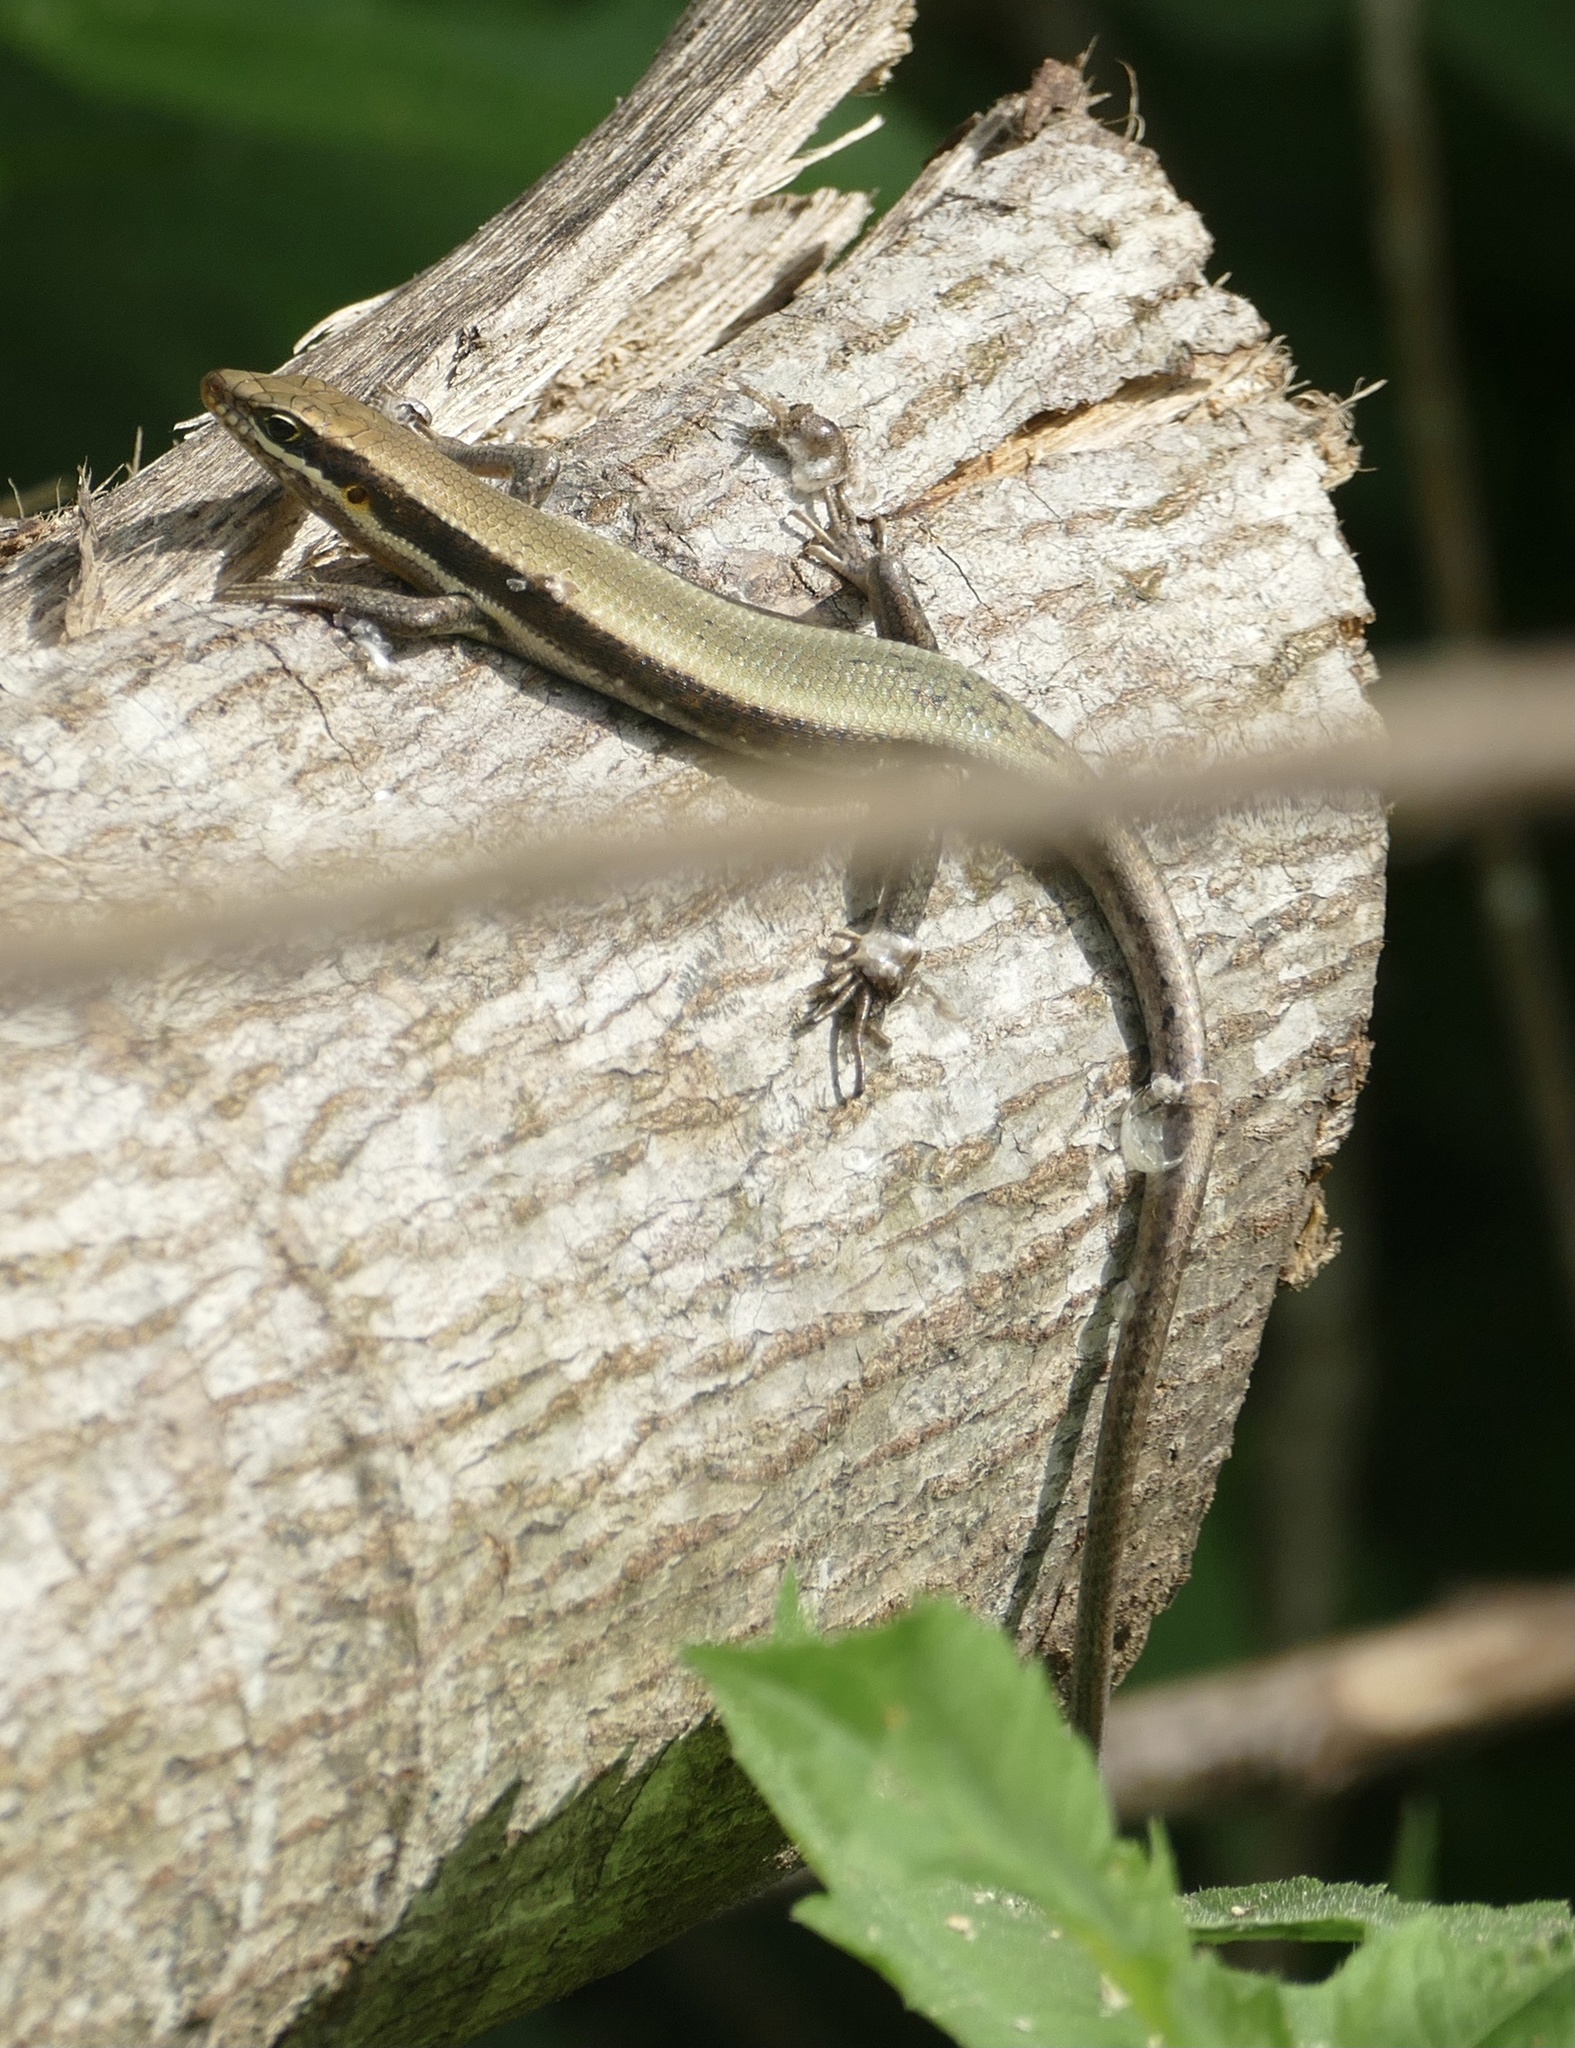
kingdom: Animalia
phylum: Chordata
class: Squamata
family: Scincidae
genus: Trachylepis
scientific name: Trachylepis maculilabris
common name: Speckle-lipped mabuya
